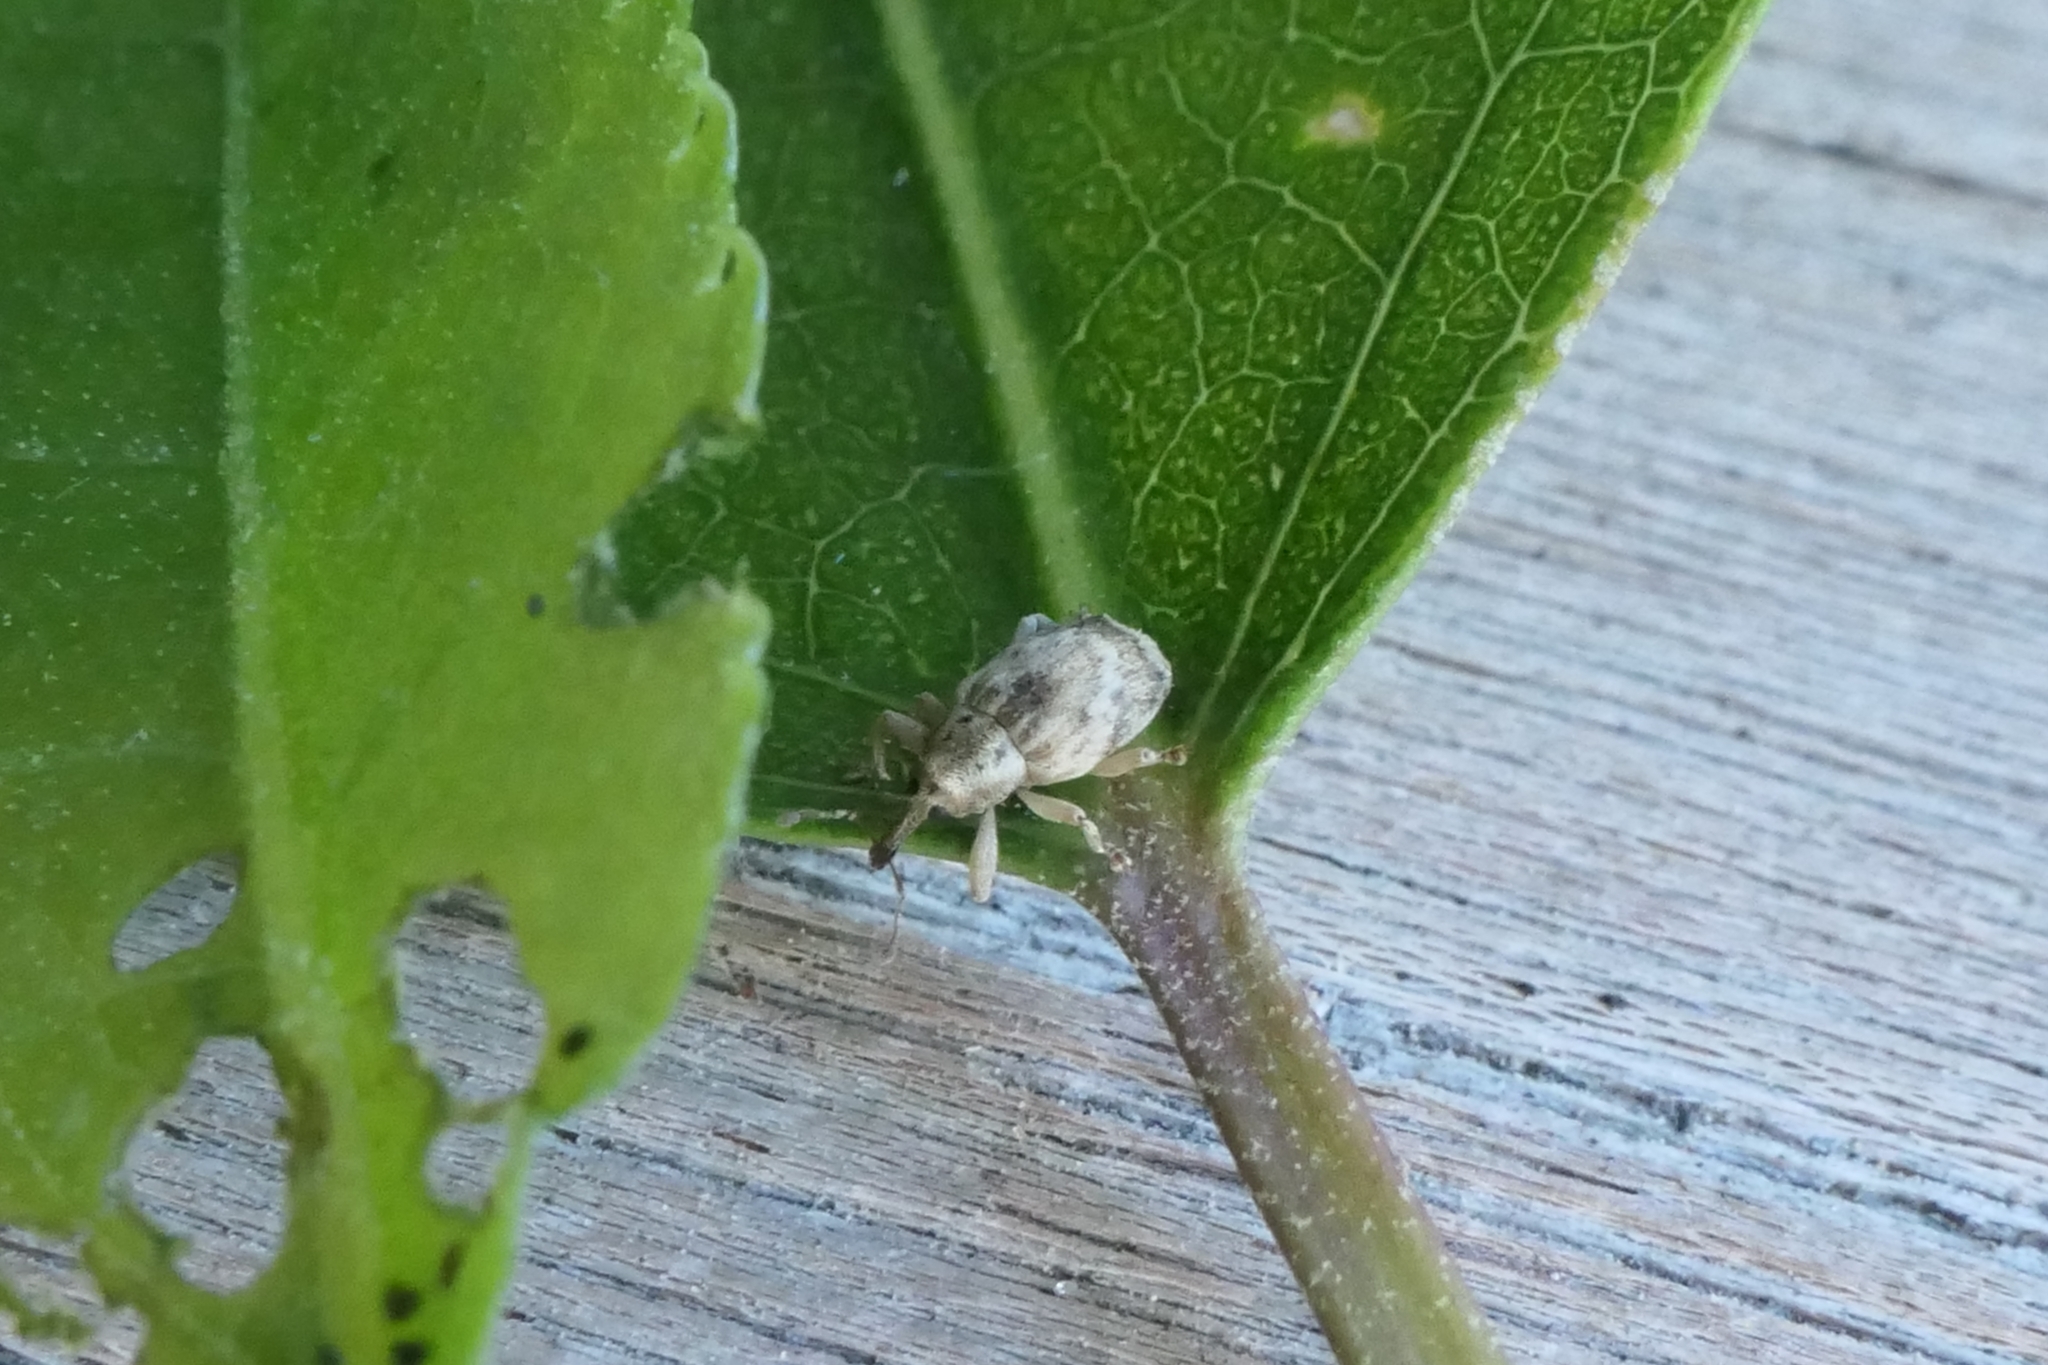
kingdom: Animalia
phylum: Arthropoda
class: Insecta
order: Coleoptera
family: Curculionidae
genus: Aneuma
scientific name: Aneuma compta
